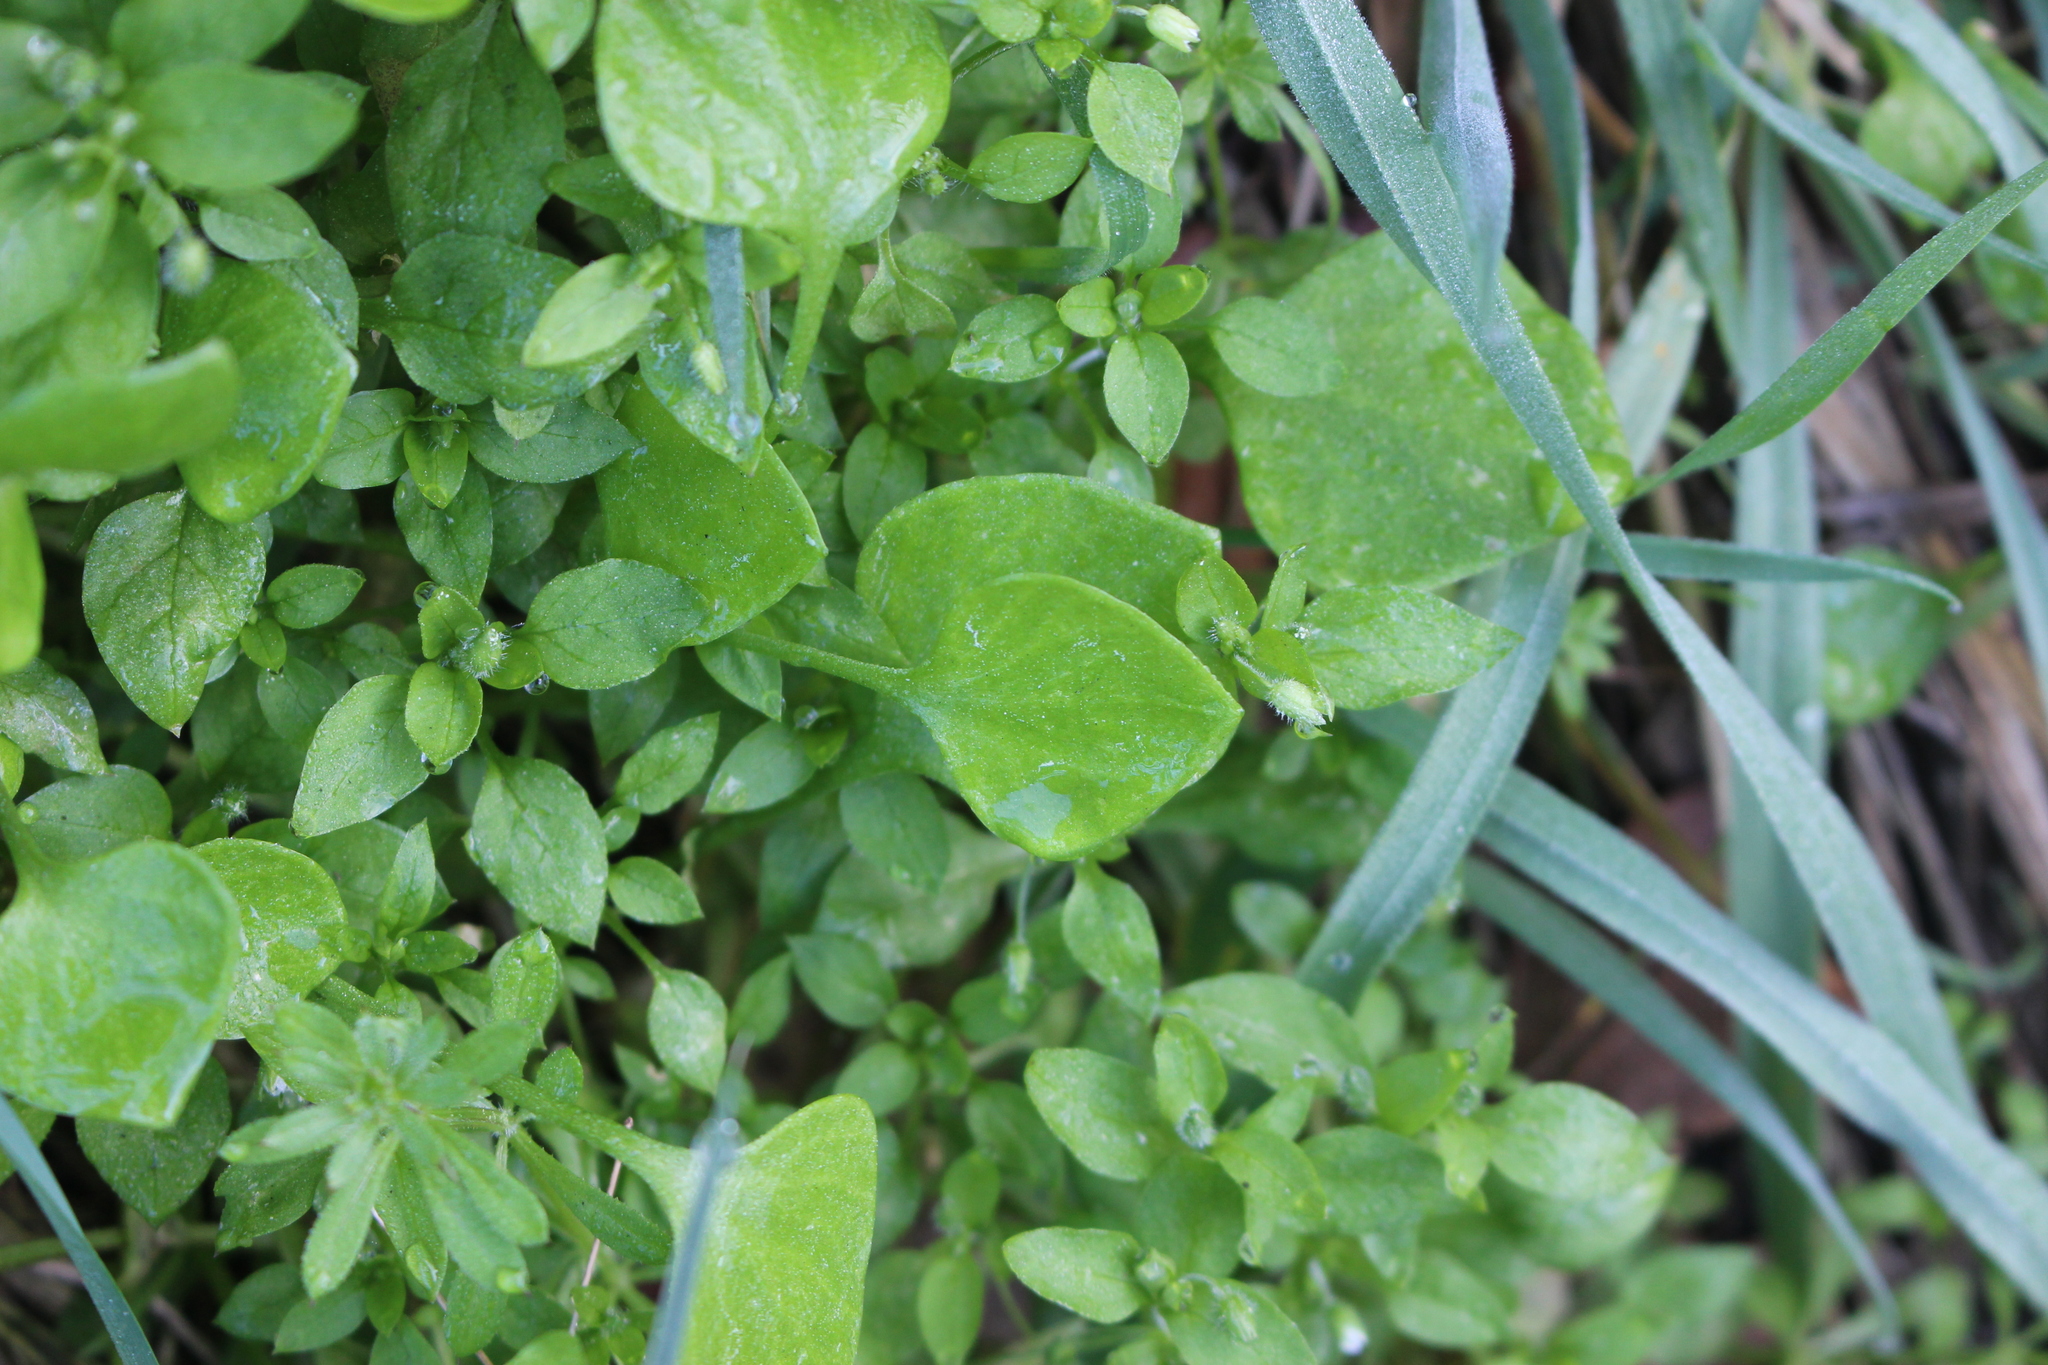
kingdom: Plantae
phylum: Tracheophyta
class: Magnoliopsida
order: Caryophyllales
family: Montiaceae
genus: Claytonia
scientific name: Claytonia perfoliata
